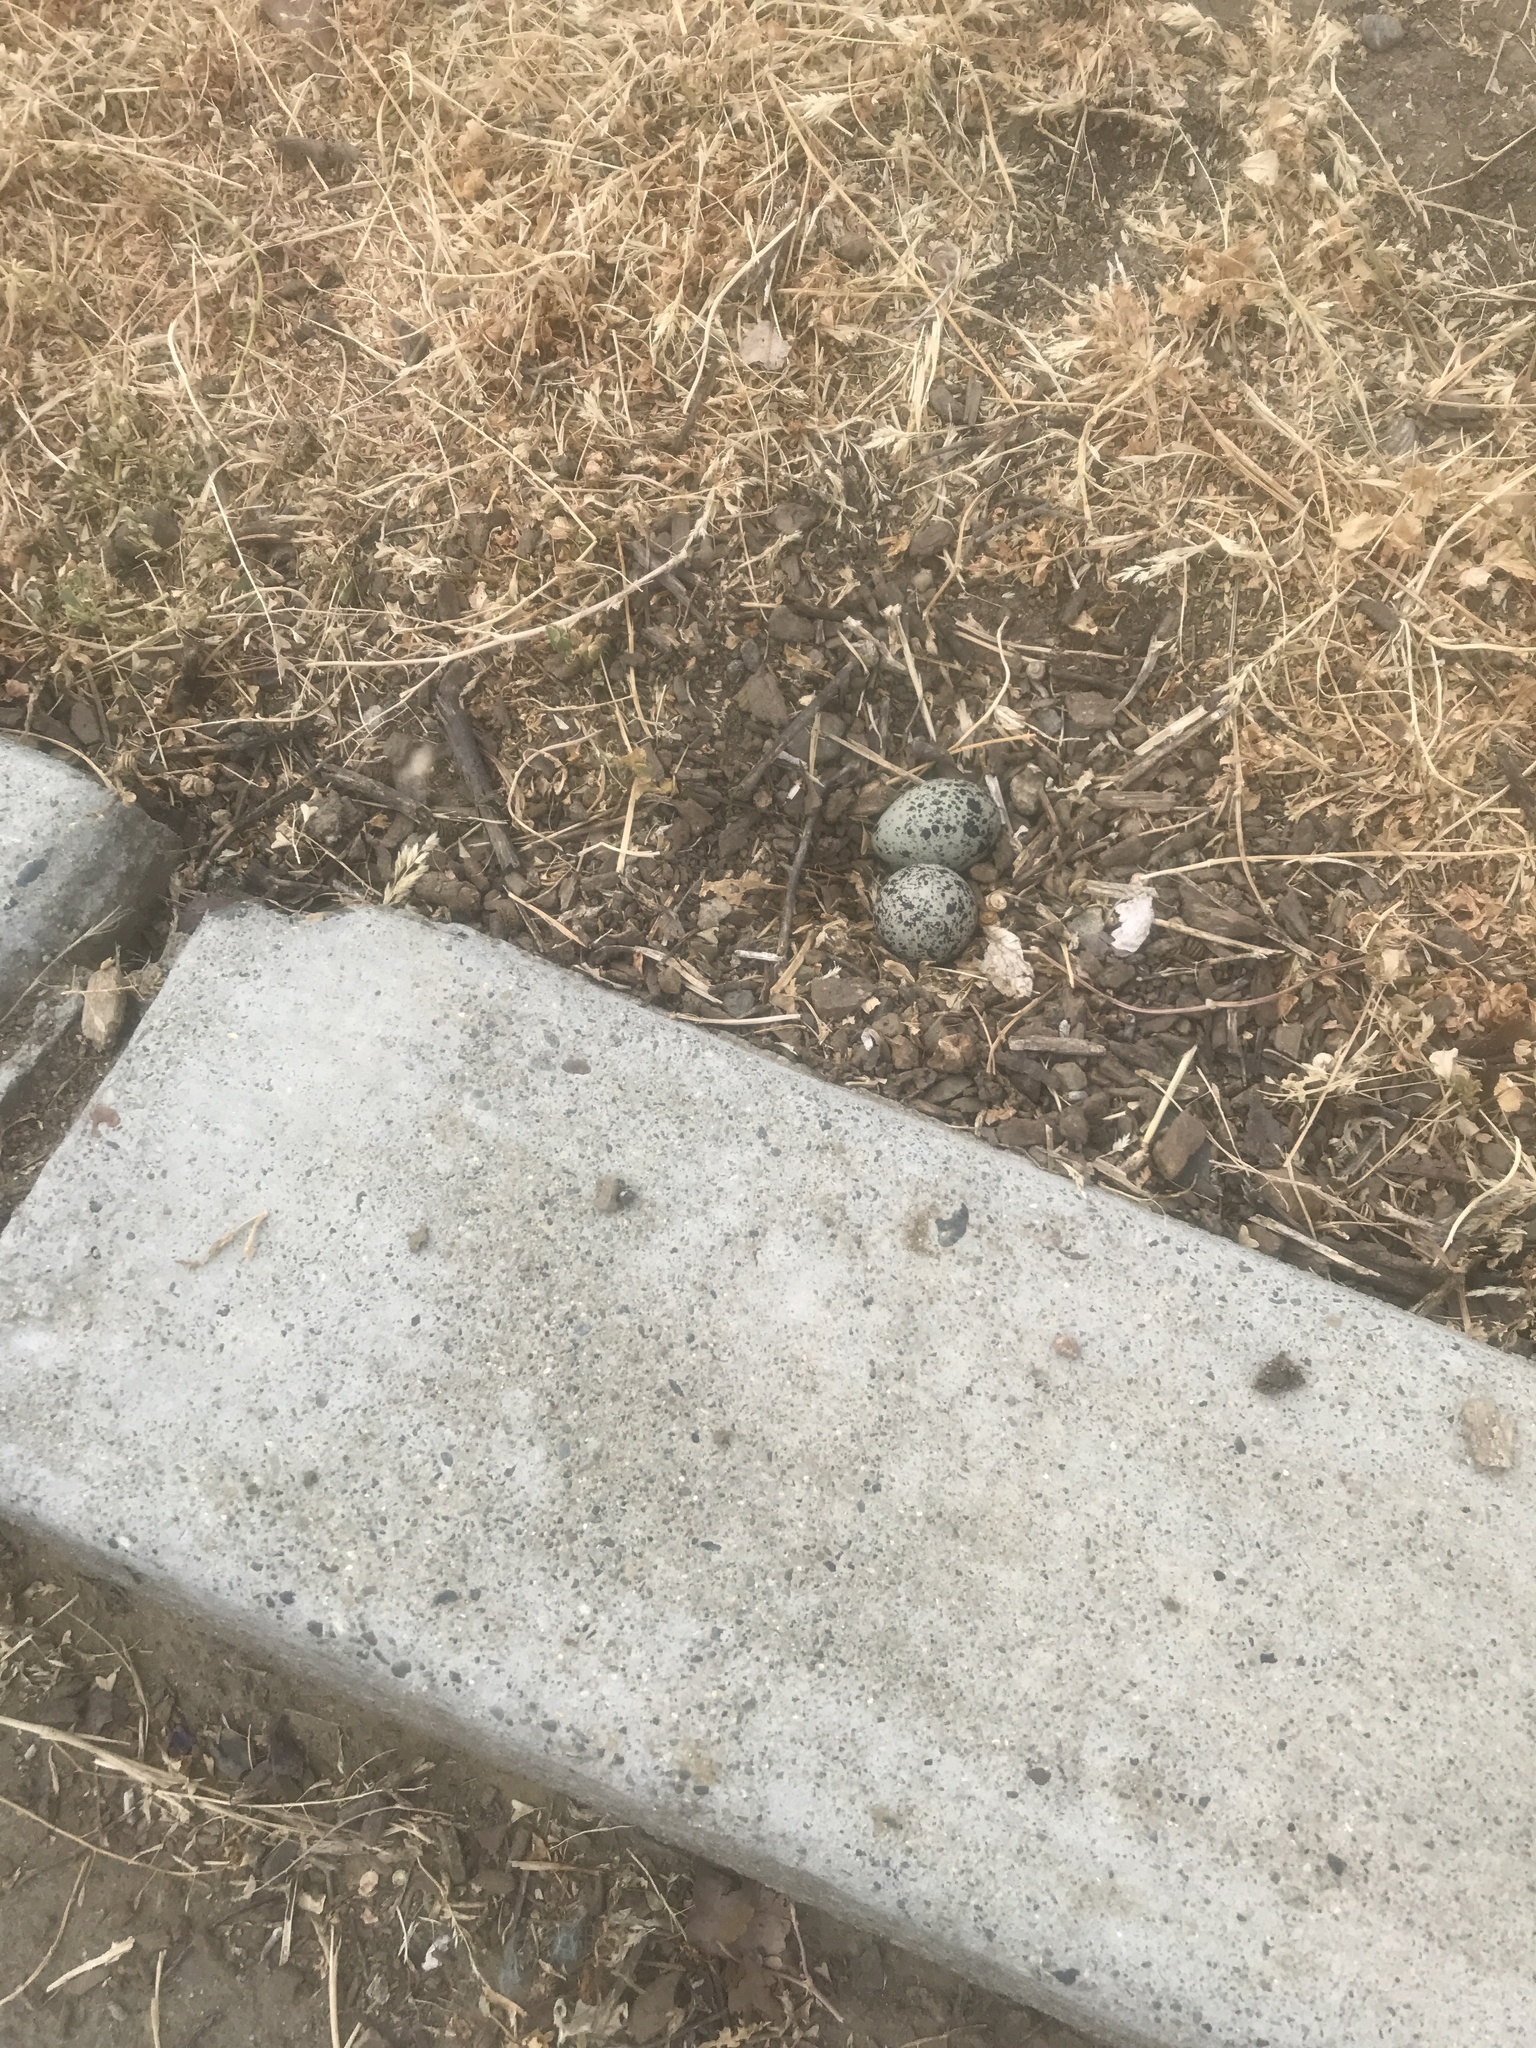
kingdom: Animalia
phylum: Chordata
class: Aves
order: Charadriiformes
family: Charadriidae
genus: Charadrius
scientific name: Charadrius vociferus
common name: Killdeer
